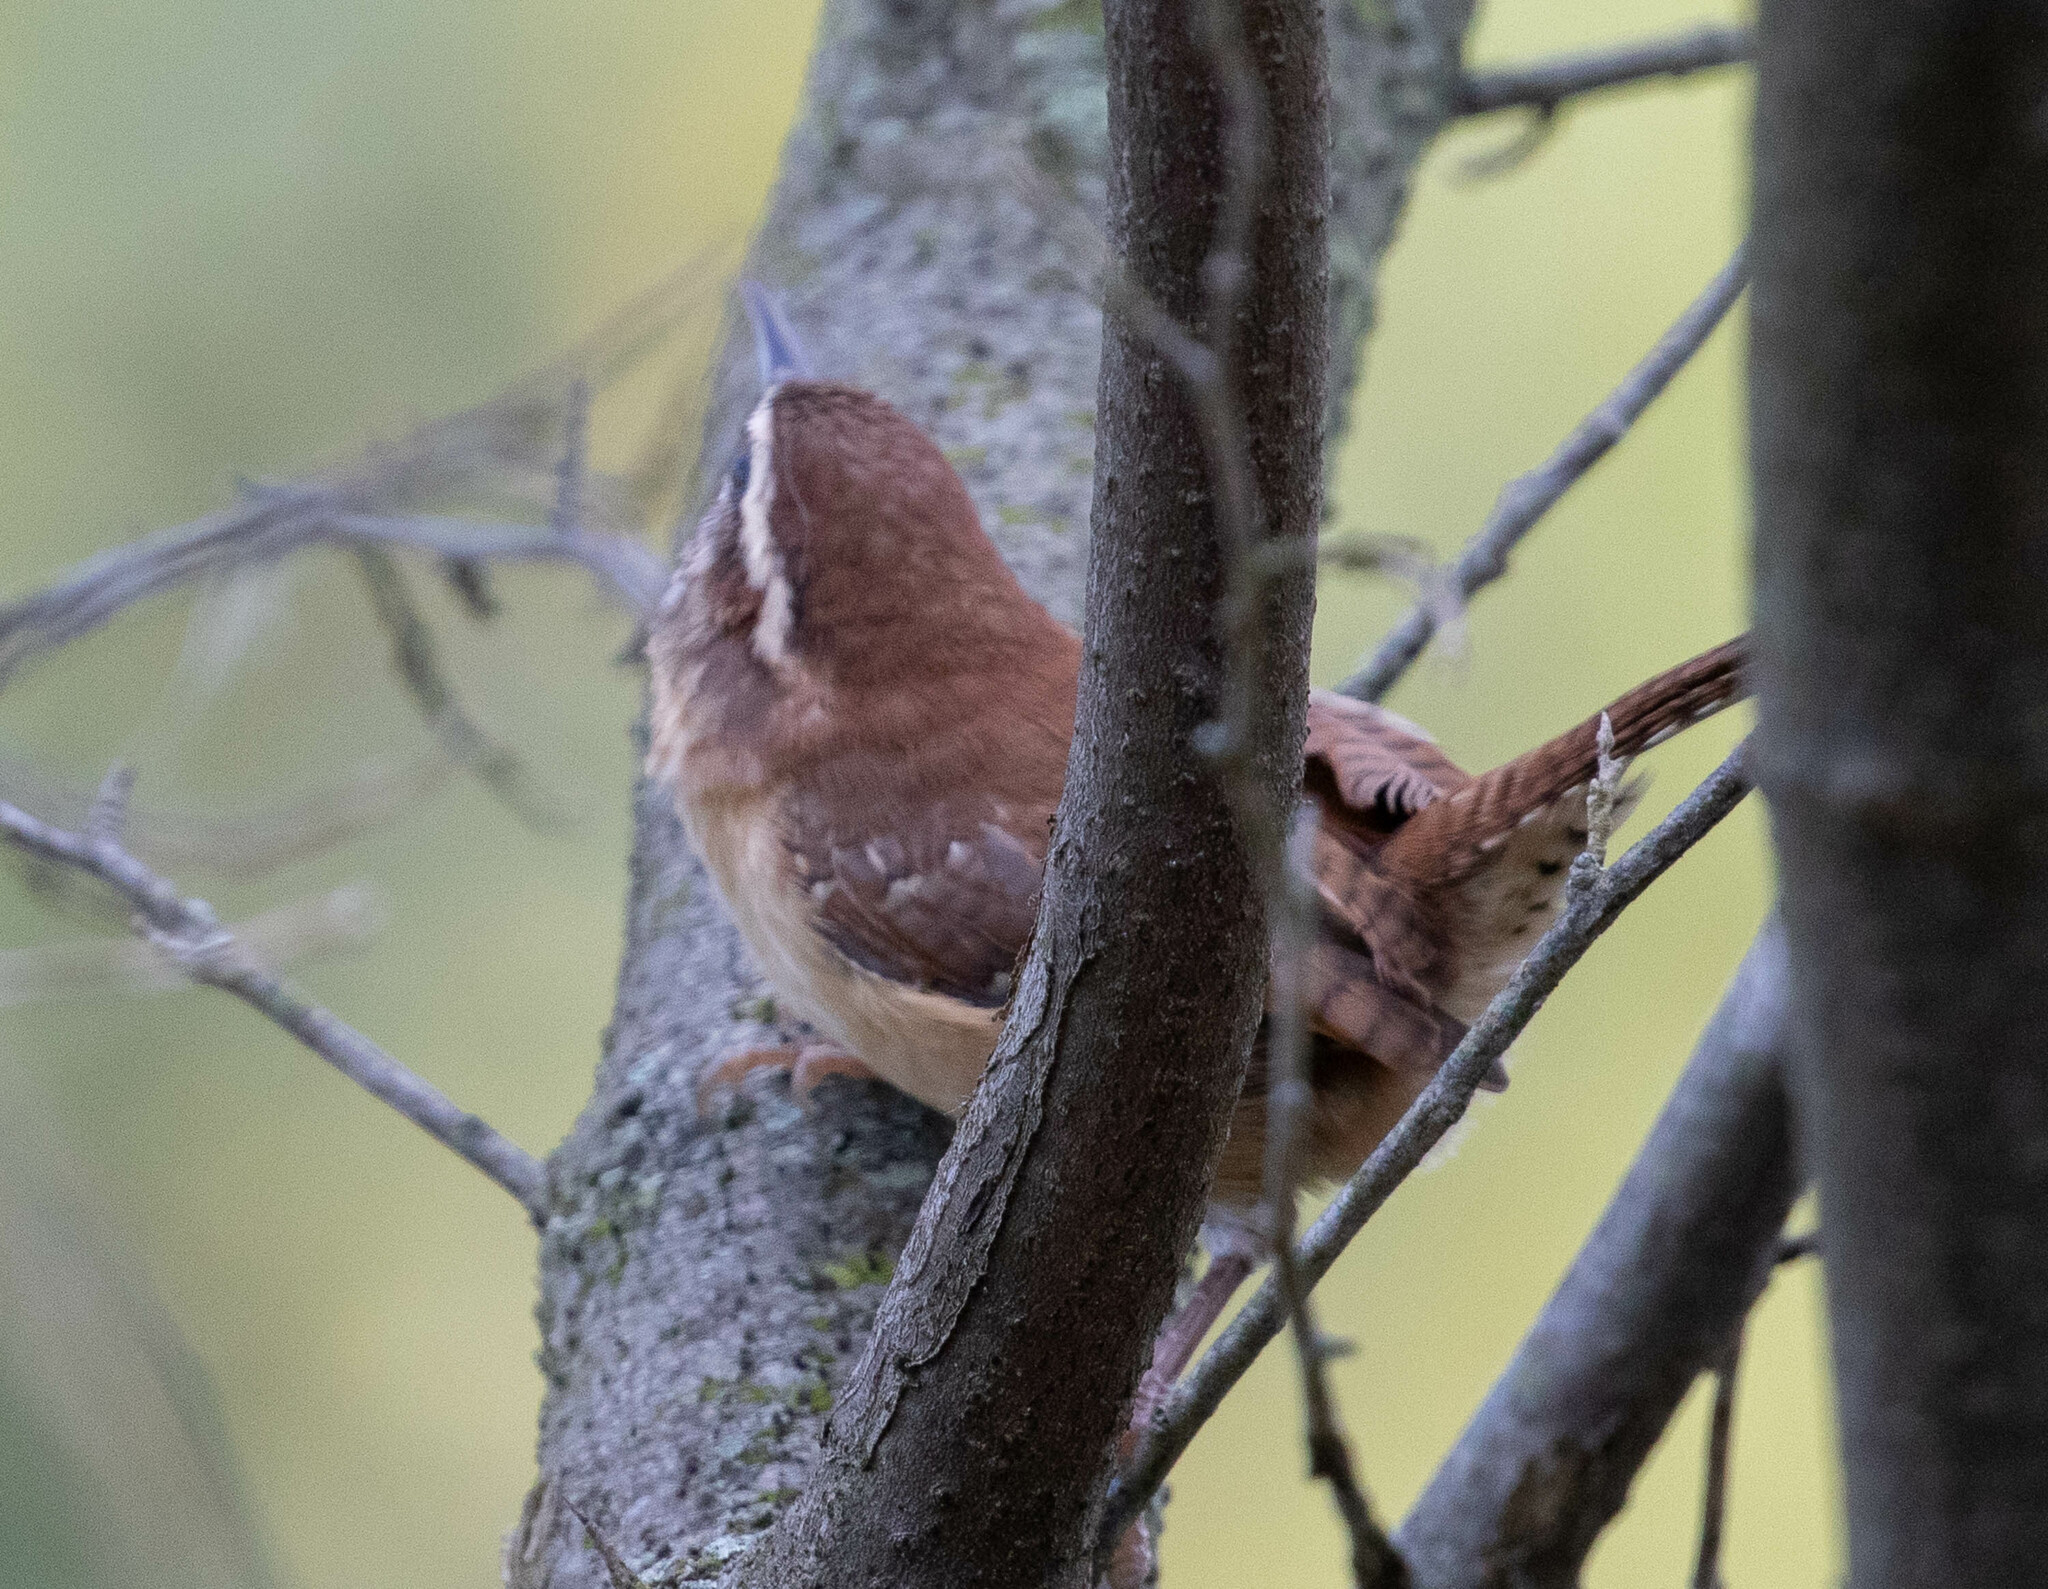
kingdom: Animalia
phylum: Chordata
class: Aves
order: Passeriformes
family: Troglodytidae
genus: Thryothorus
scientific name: Thryothorus ludovicianus
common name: Carolina wren
